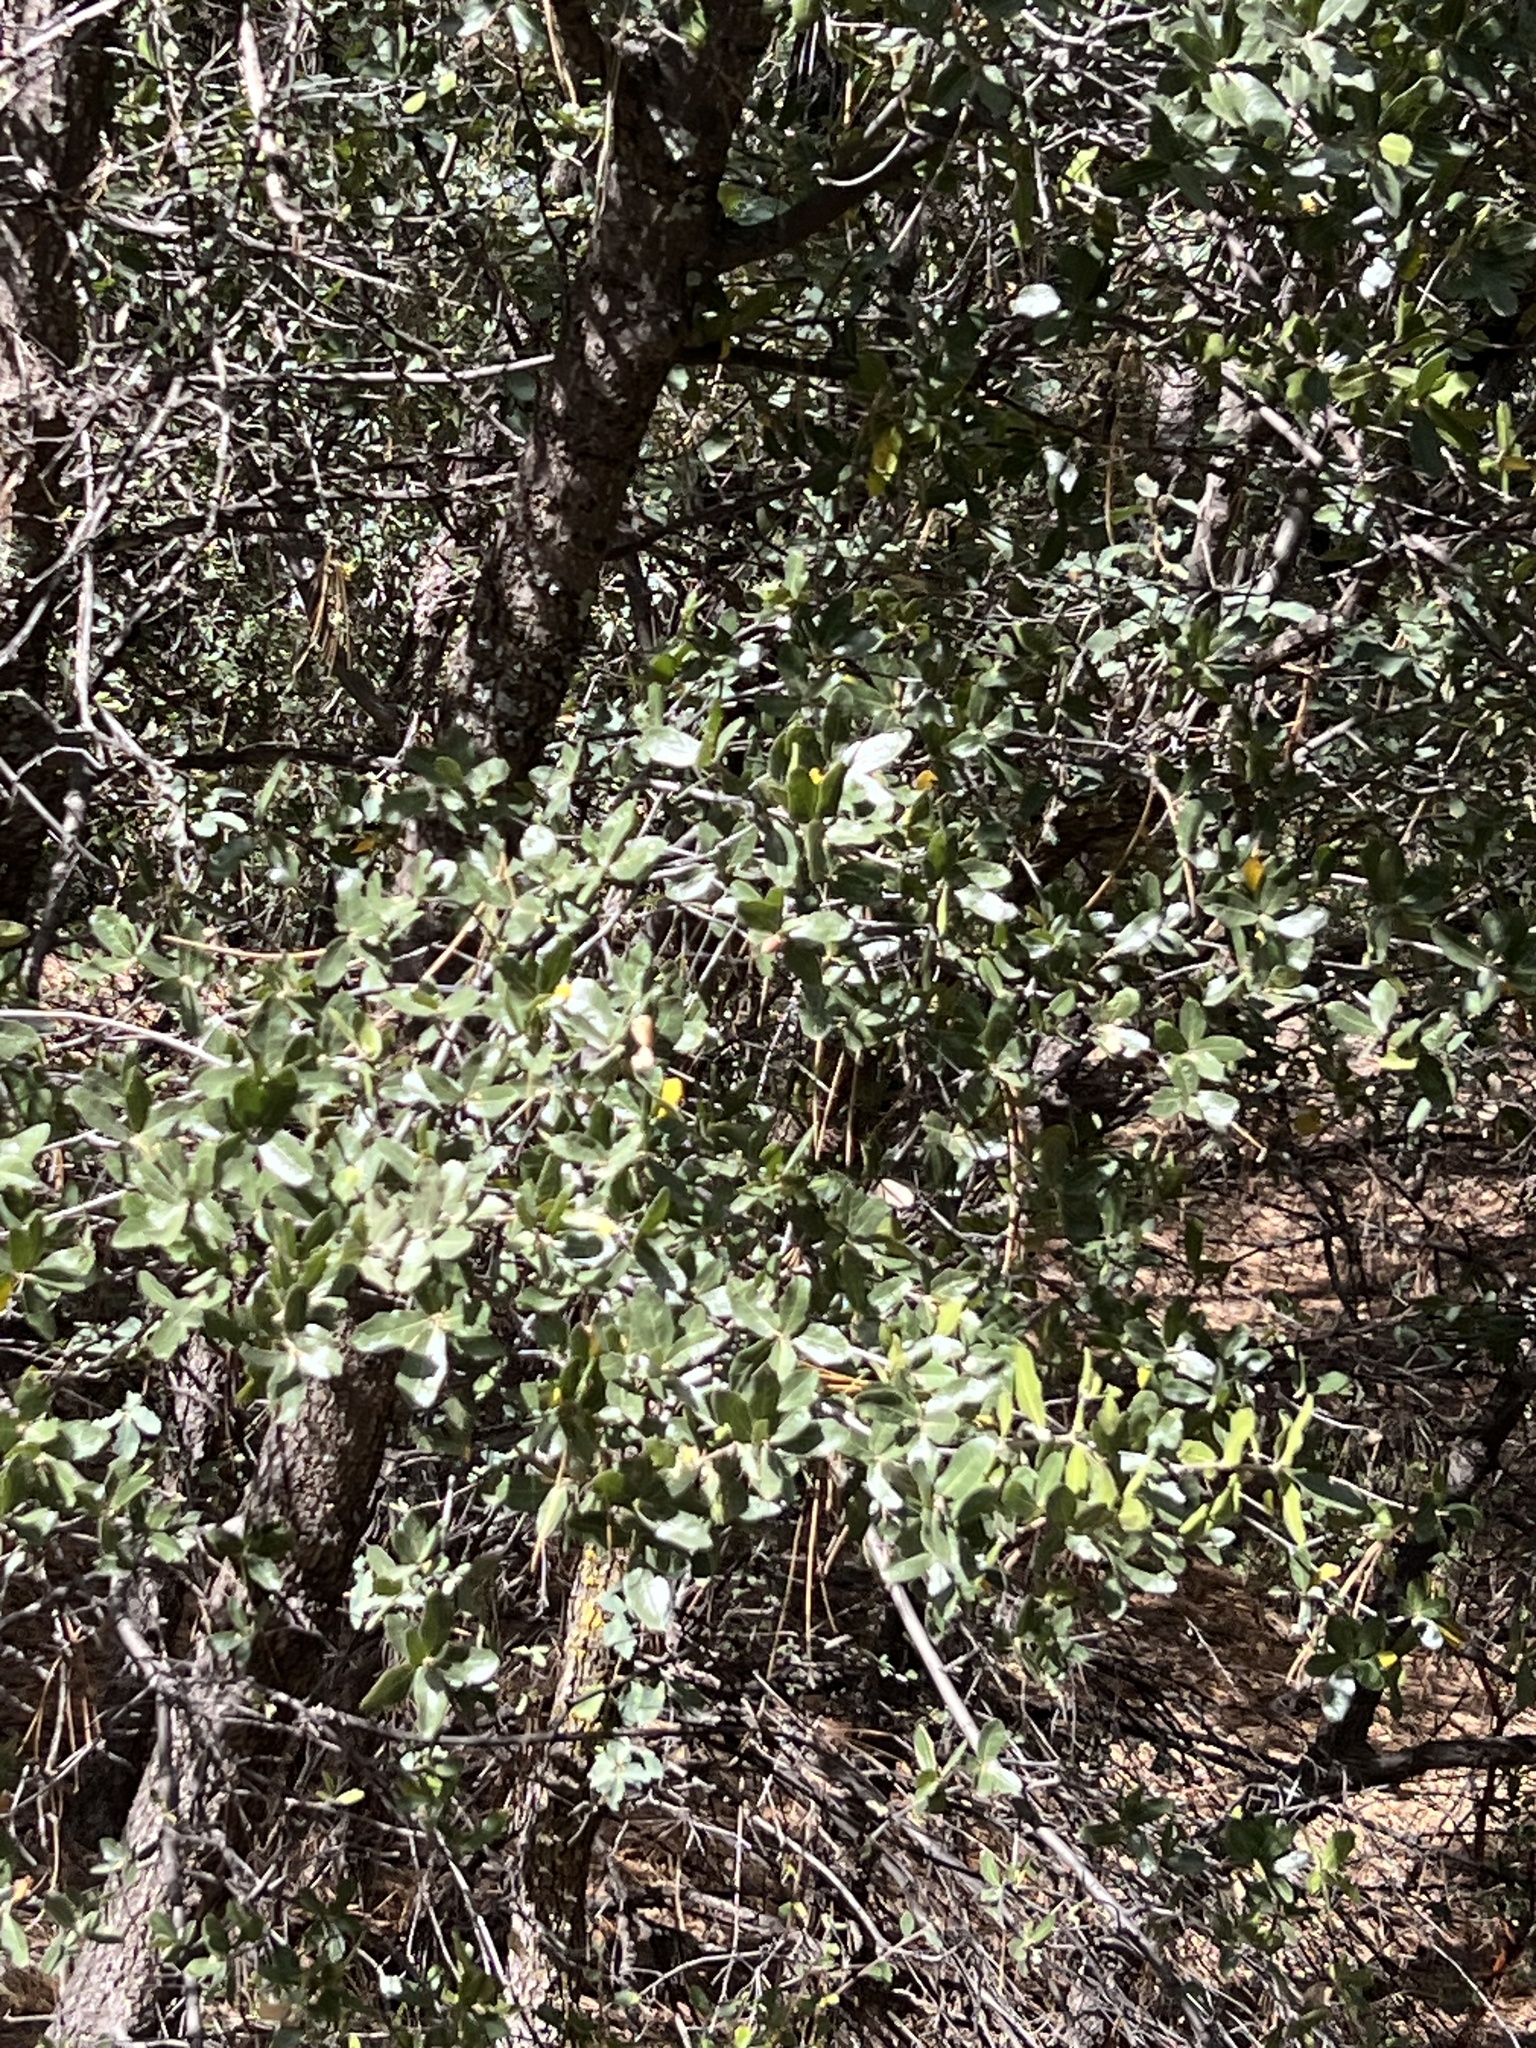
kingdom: Plantae
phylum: Tracheophyta
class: Magnoliopsida
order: Fagales
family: Fagaceae
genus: Quercus
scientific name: Quercus emoryi
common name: Emory oak
